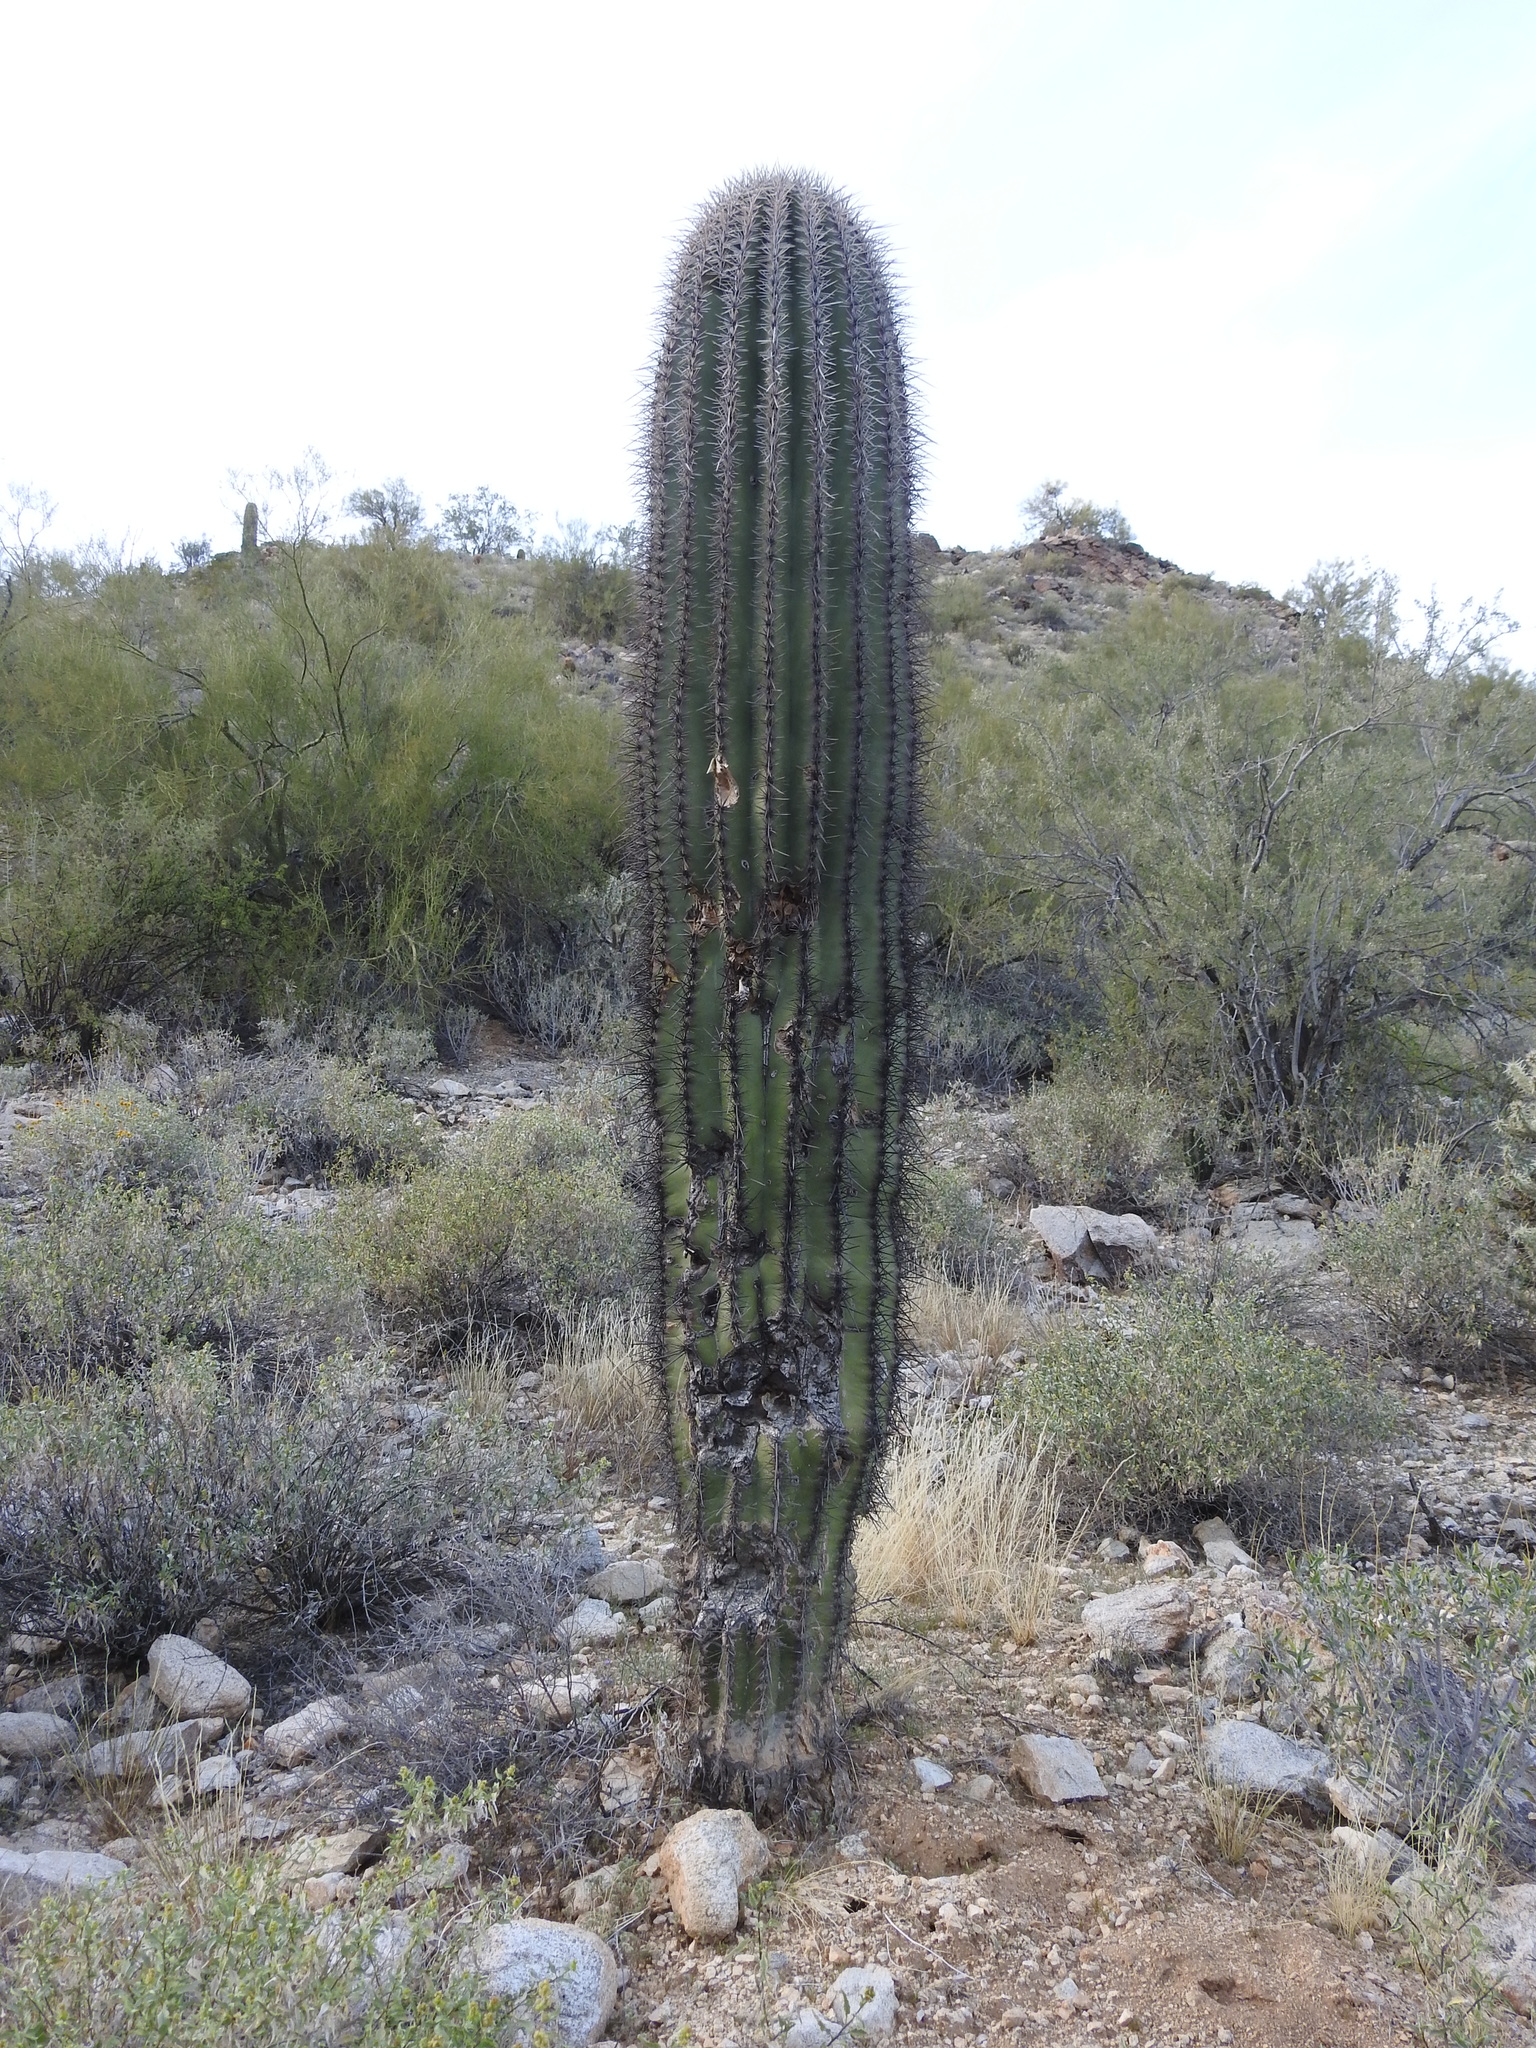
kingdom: Plantae
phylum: Tracheophyta
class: Magnoliopsida
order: Caryophyllales
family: Cactaceae
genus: Carnegiea
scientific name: Carnegiea gigantea
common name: Saguaro
